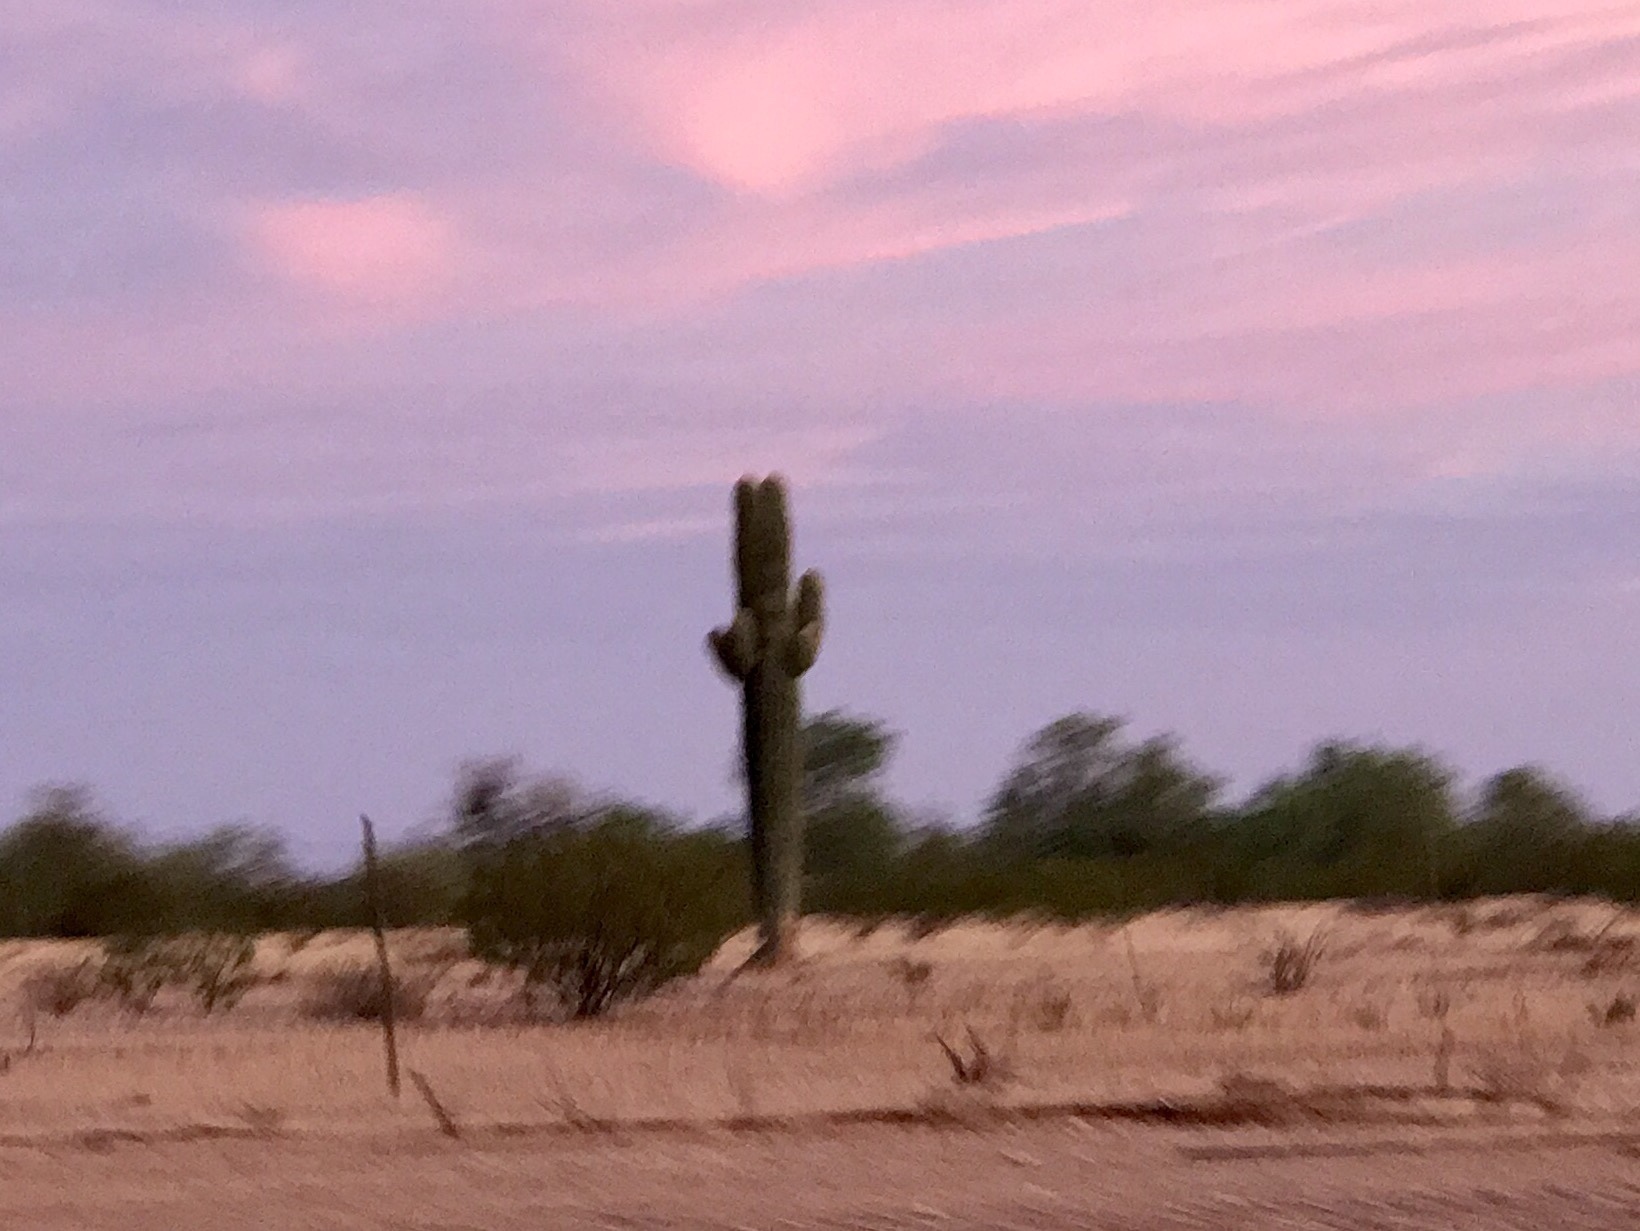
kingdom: Plantae
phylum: Tracheophyta
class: Magnoliopsida
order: Caryophyllales
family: Cactaceae
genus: Carnegiea
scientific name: Carnegiea gigantea
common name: Saguaro
